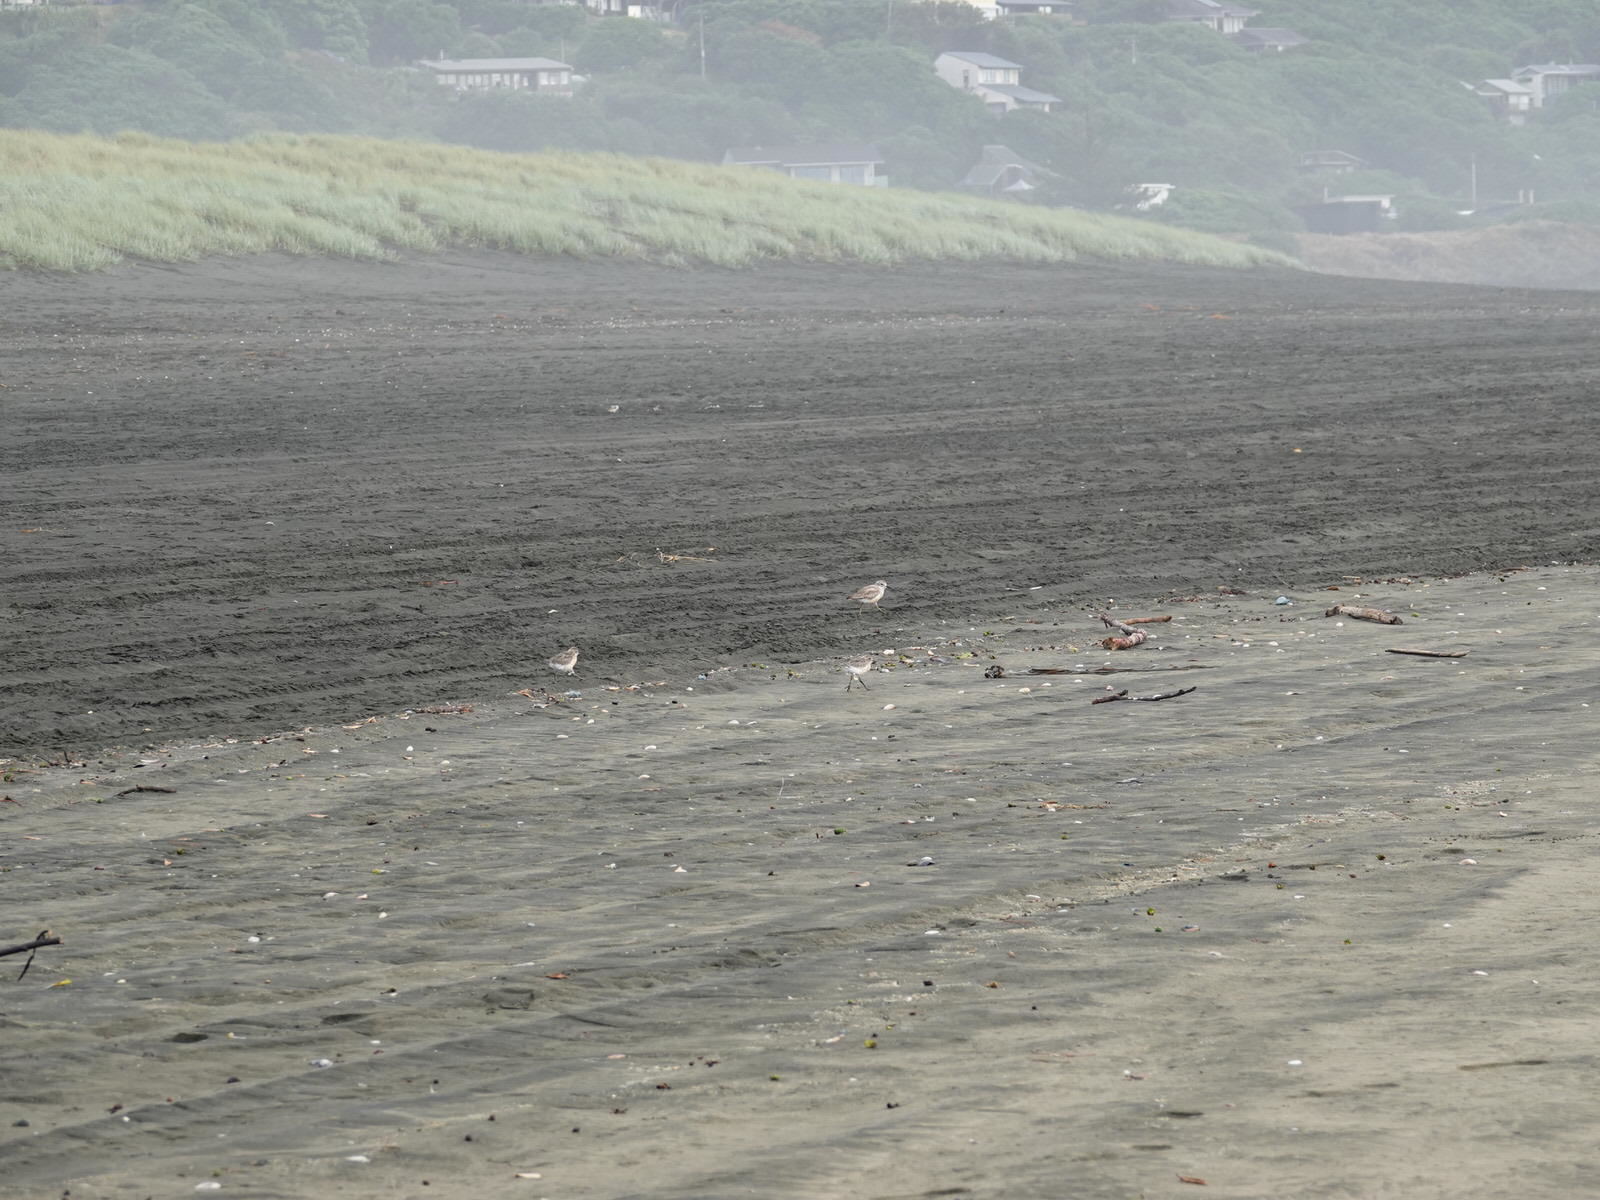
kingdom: Animalia
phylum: Chordata
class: Aves
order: Charadriiformes
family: Charadriidae
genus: Anarhynchus
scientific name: Anarhynchus
